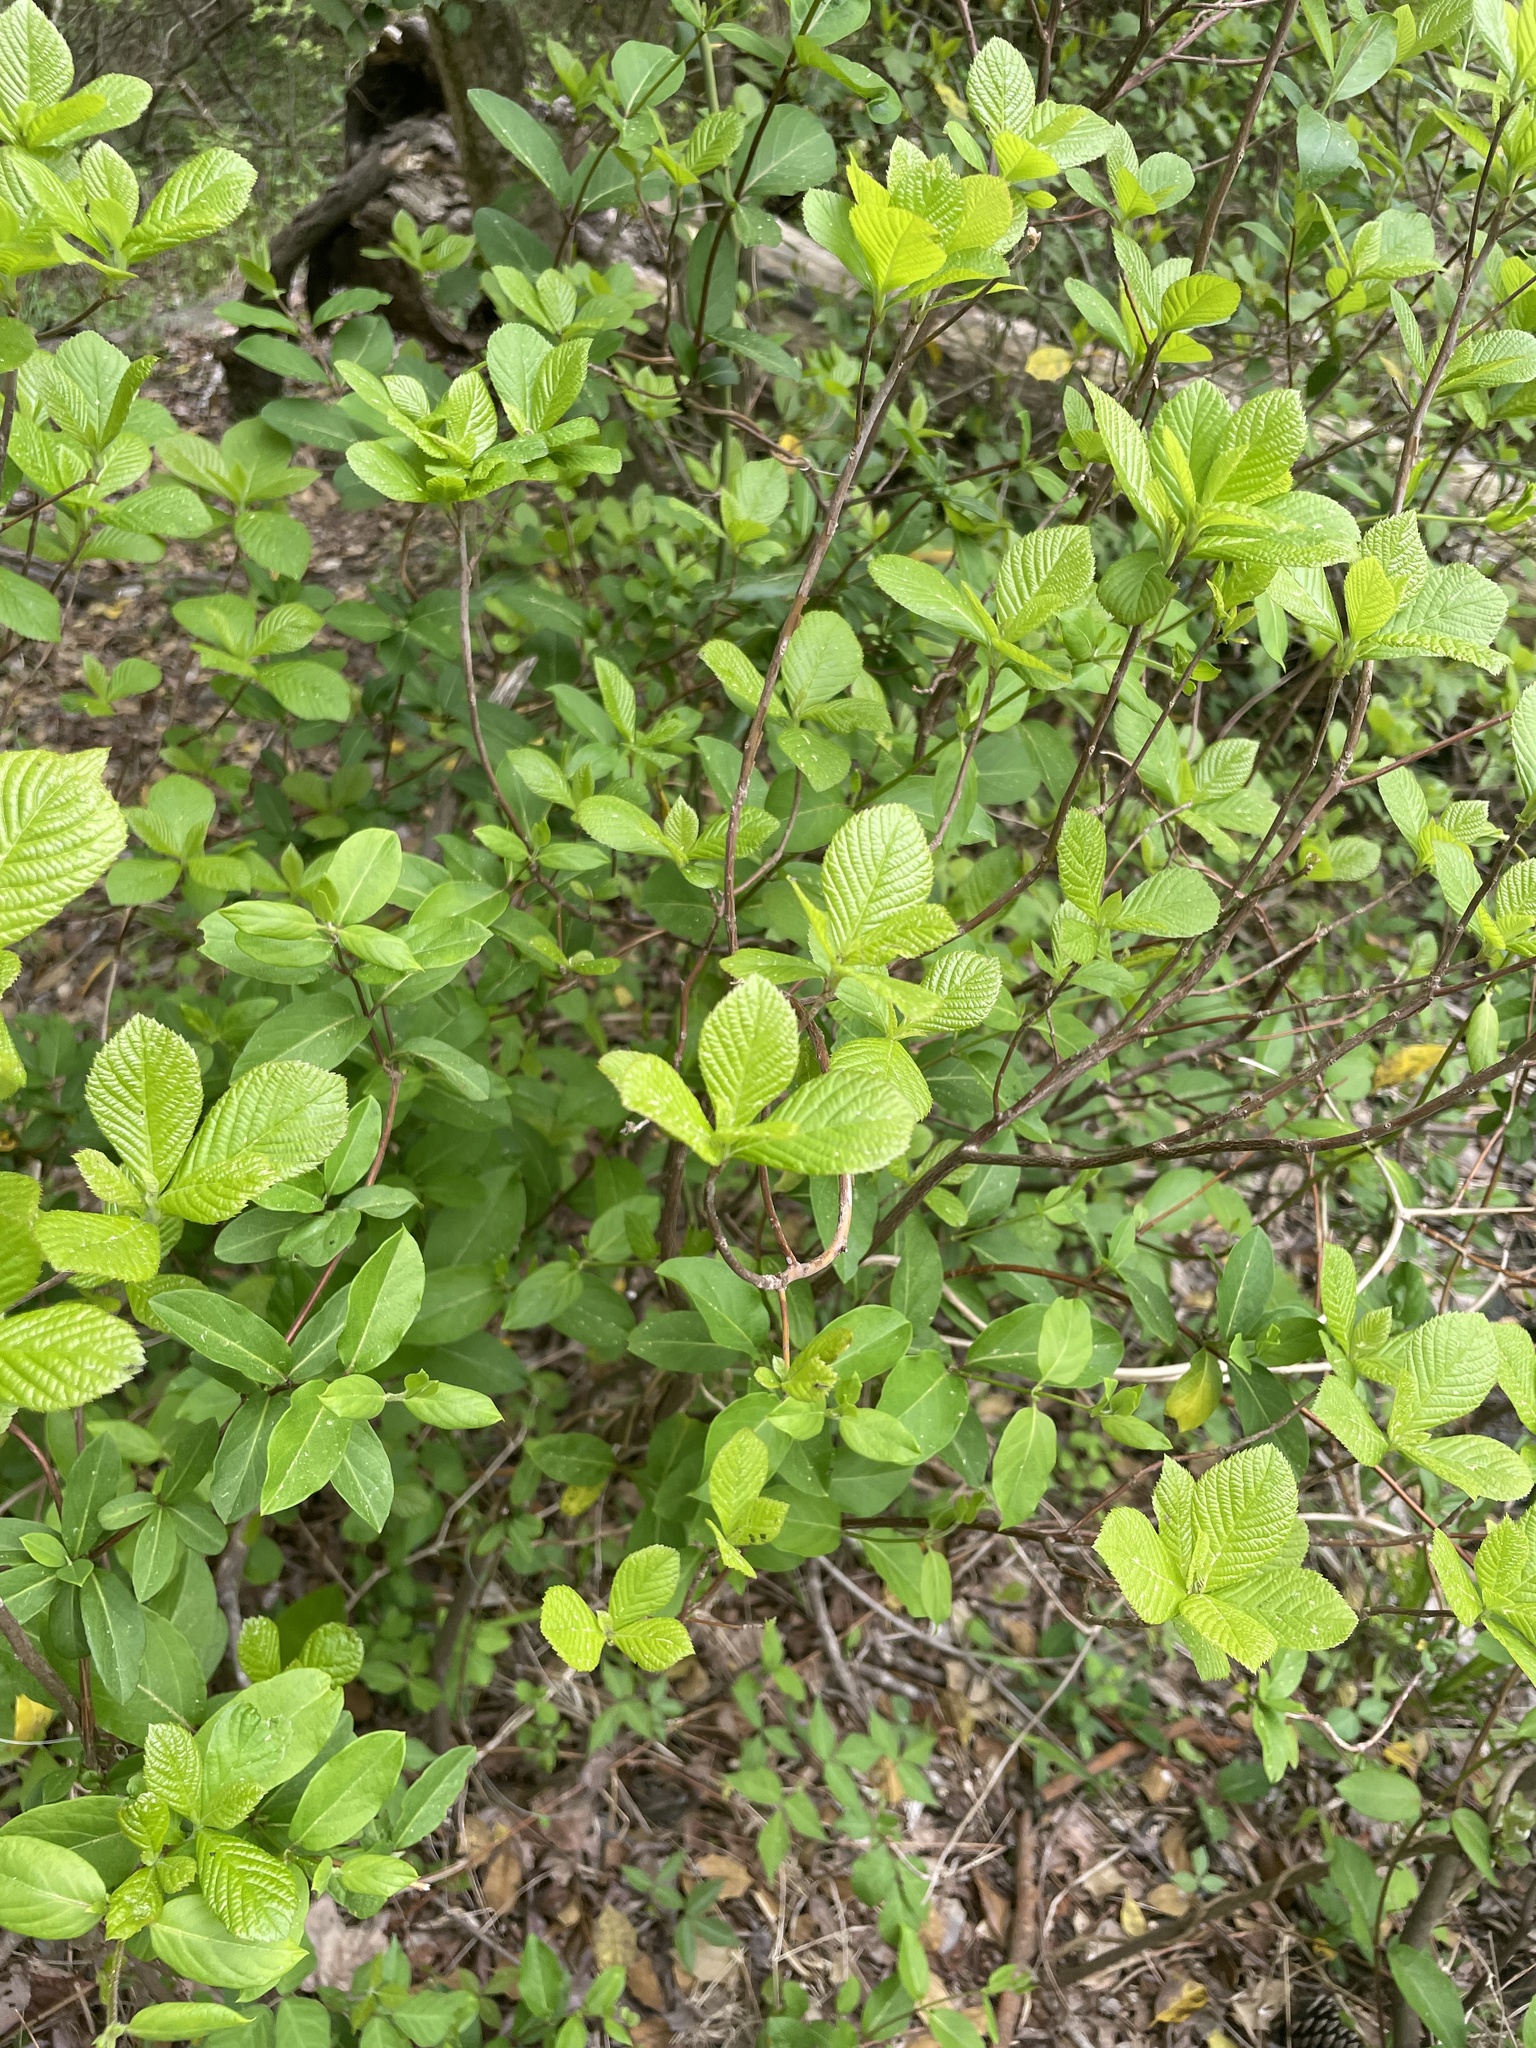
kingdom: Plantae
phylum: Tracheophyta
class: Magnoliopsida
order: Ericales
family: Clethraceae
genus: Clethra
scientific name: Clethra alnifolia
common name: Sweet pepperbush
